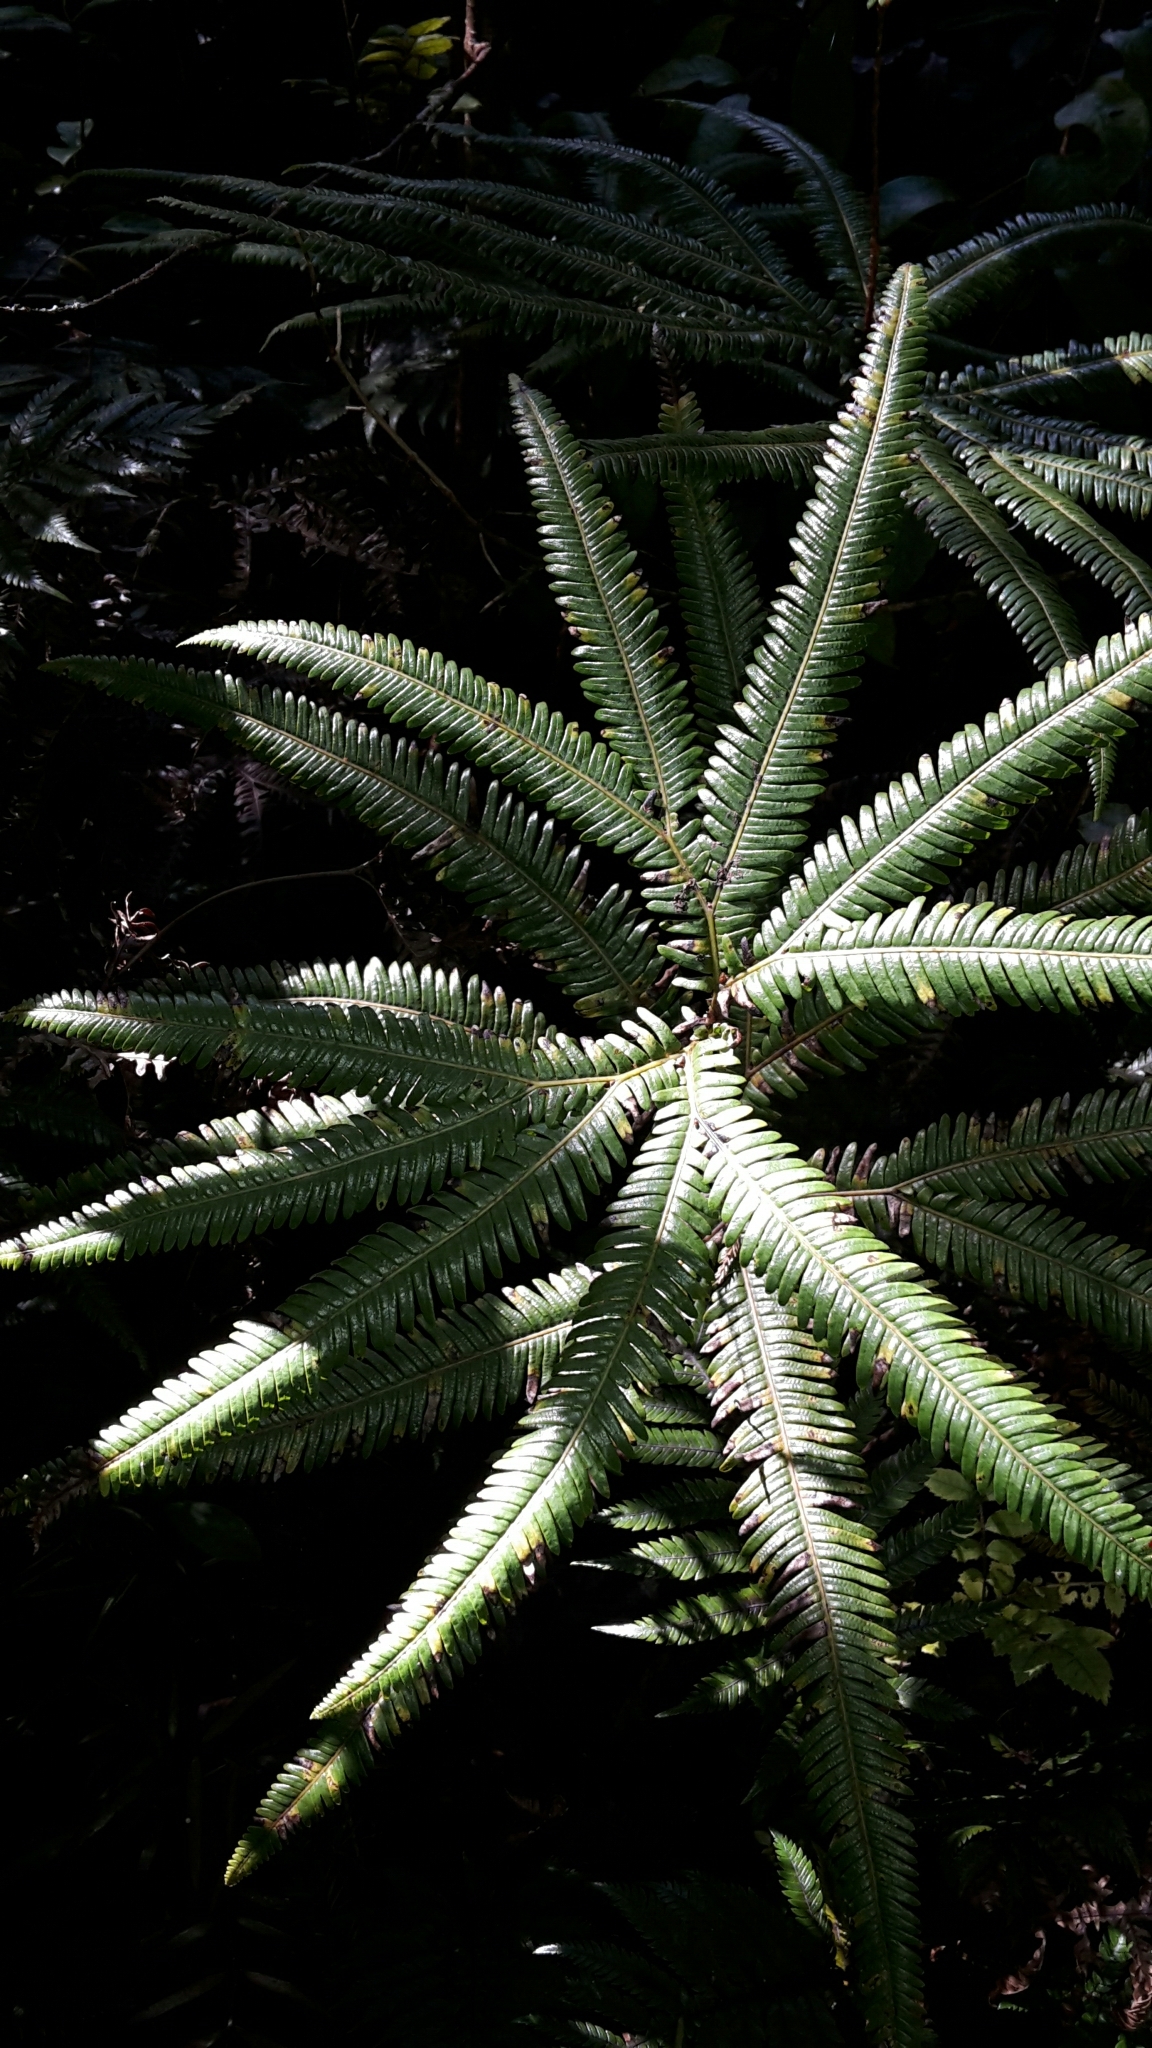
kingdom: Plantae
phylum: Tracheophyta
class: Polypodiopsida
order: Gleicheniales
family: Gleicheniaceae
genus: Sticherus
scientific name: Sticherus cunninghamii
